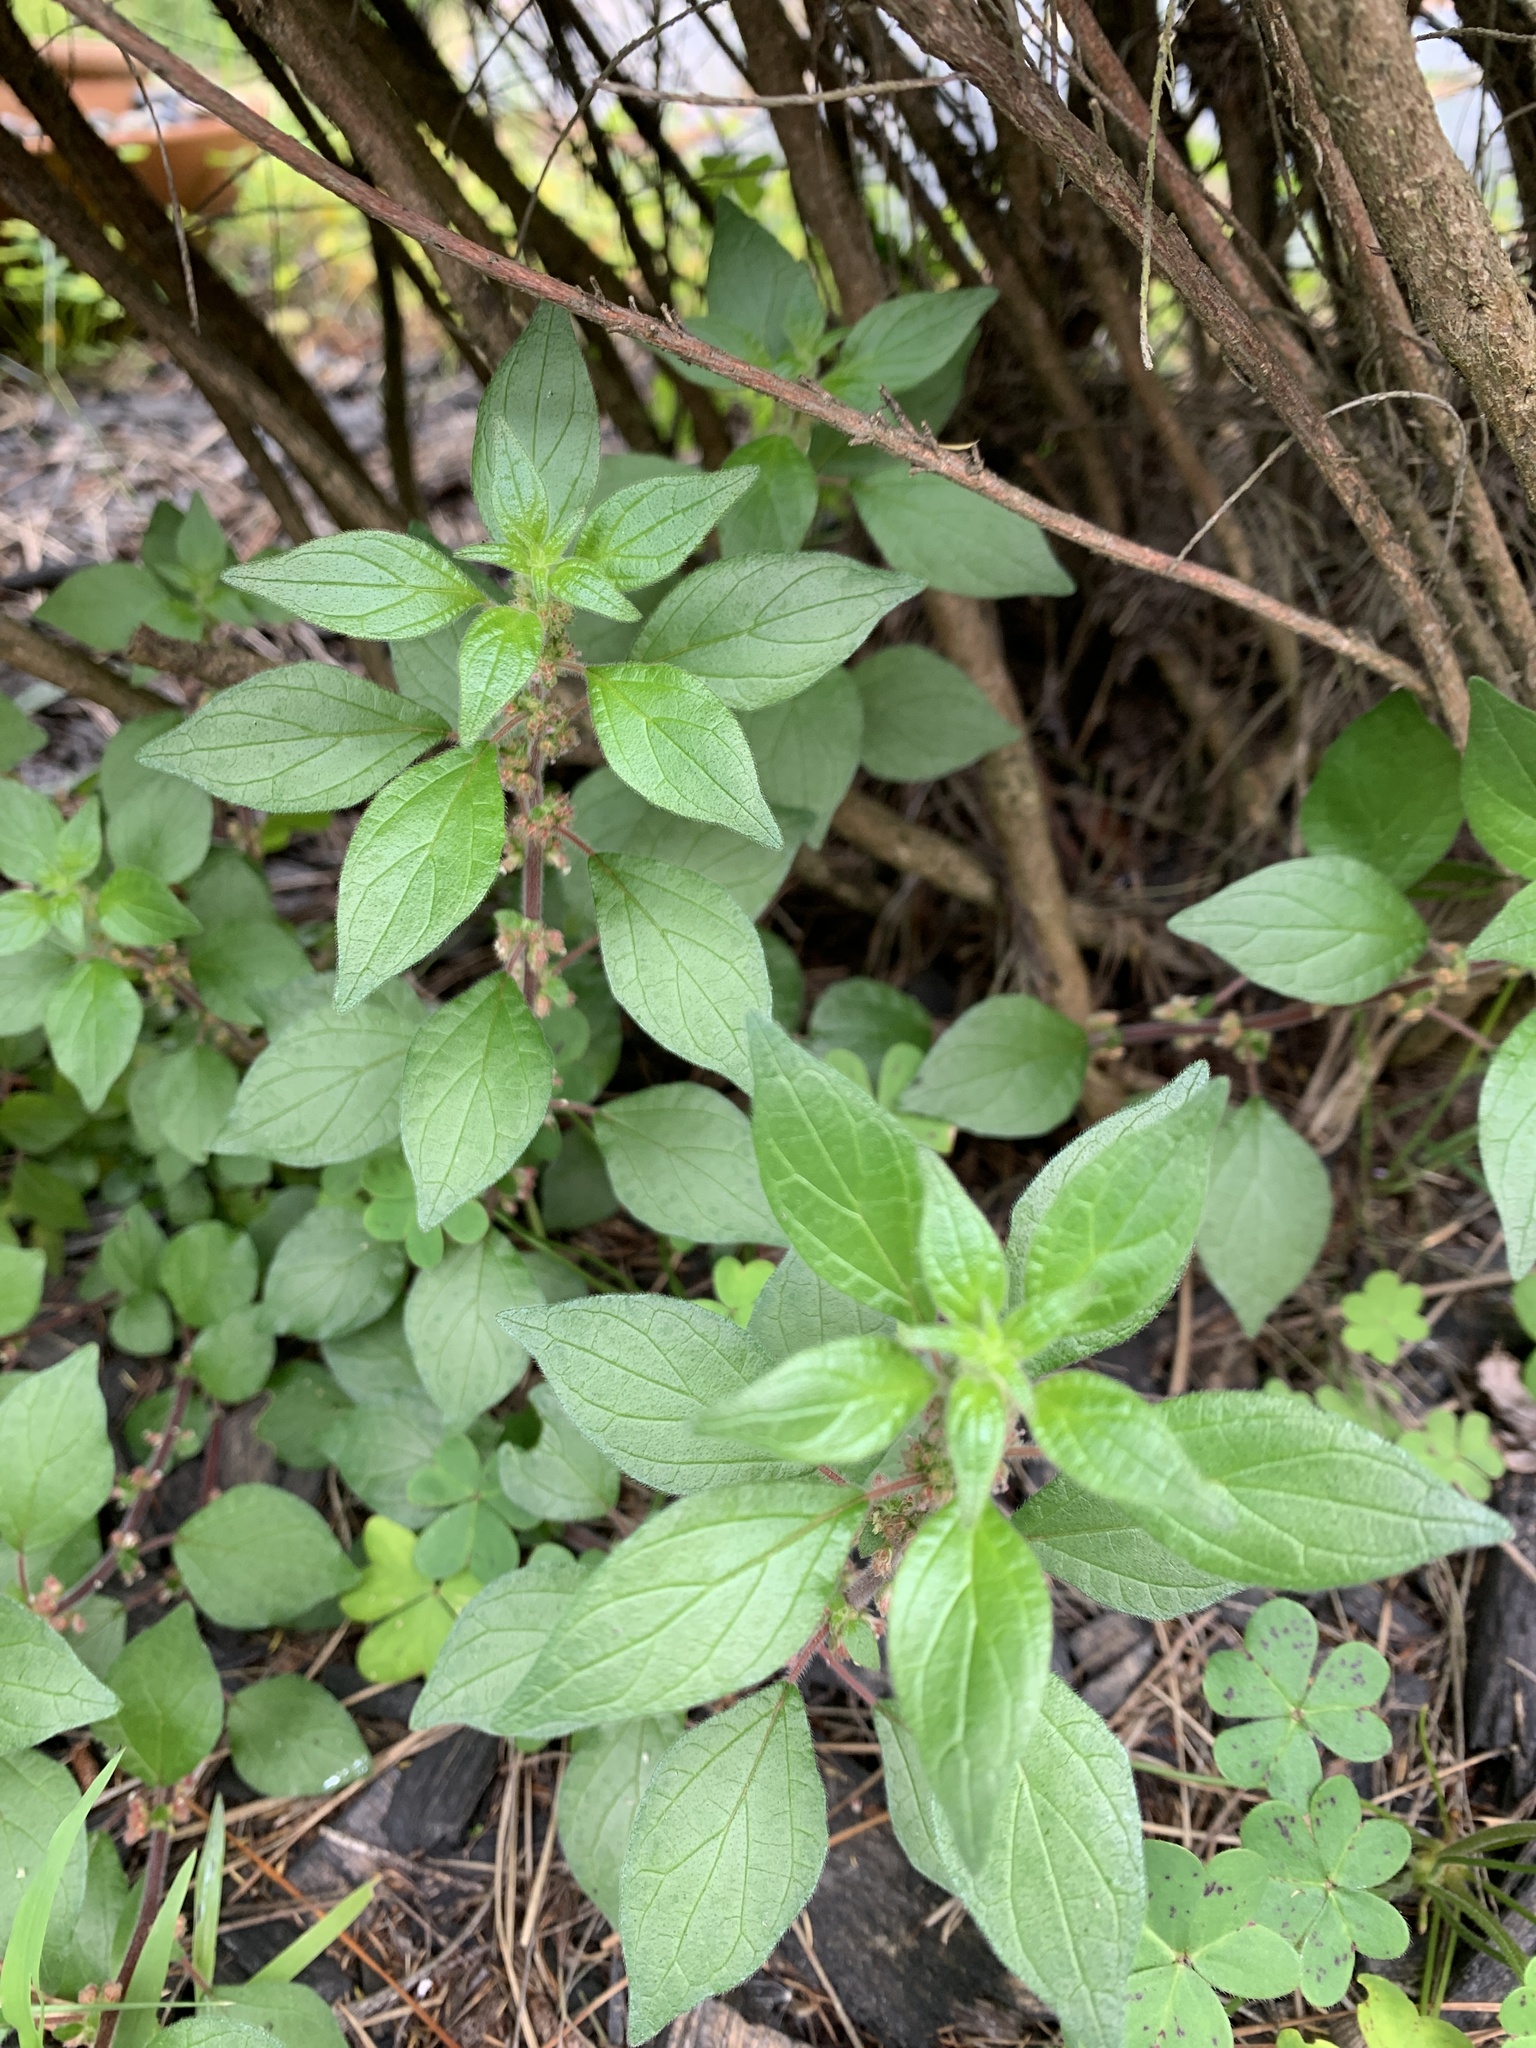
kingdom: Plantae
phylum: Tracheophyta
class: Magnoliopsida
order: Rosales
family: Urticaceae
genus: Parietaria
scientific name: Parietaria judaica
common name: Pellitory-of-the-wall
